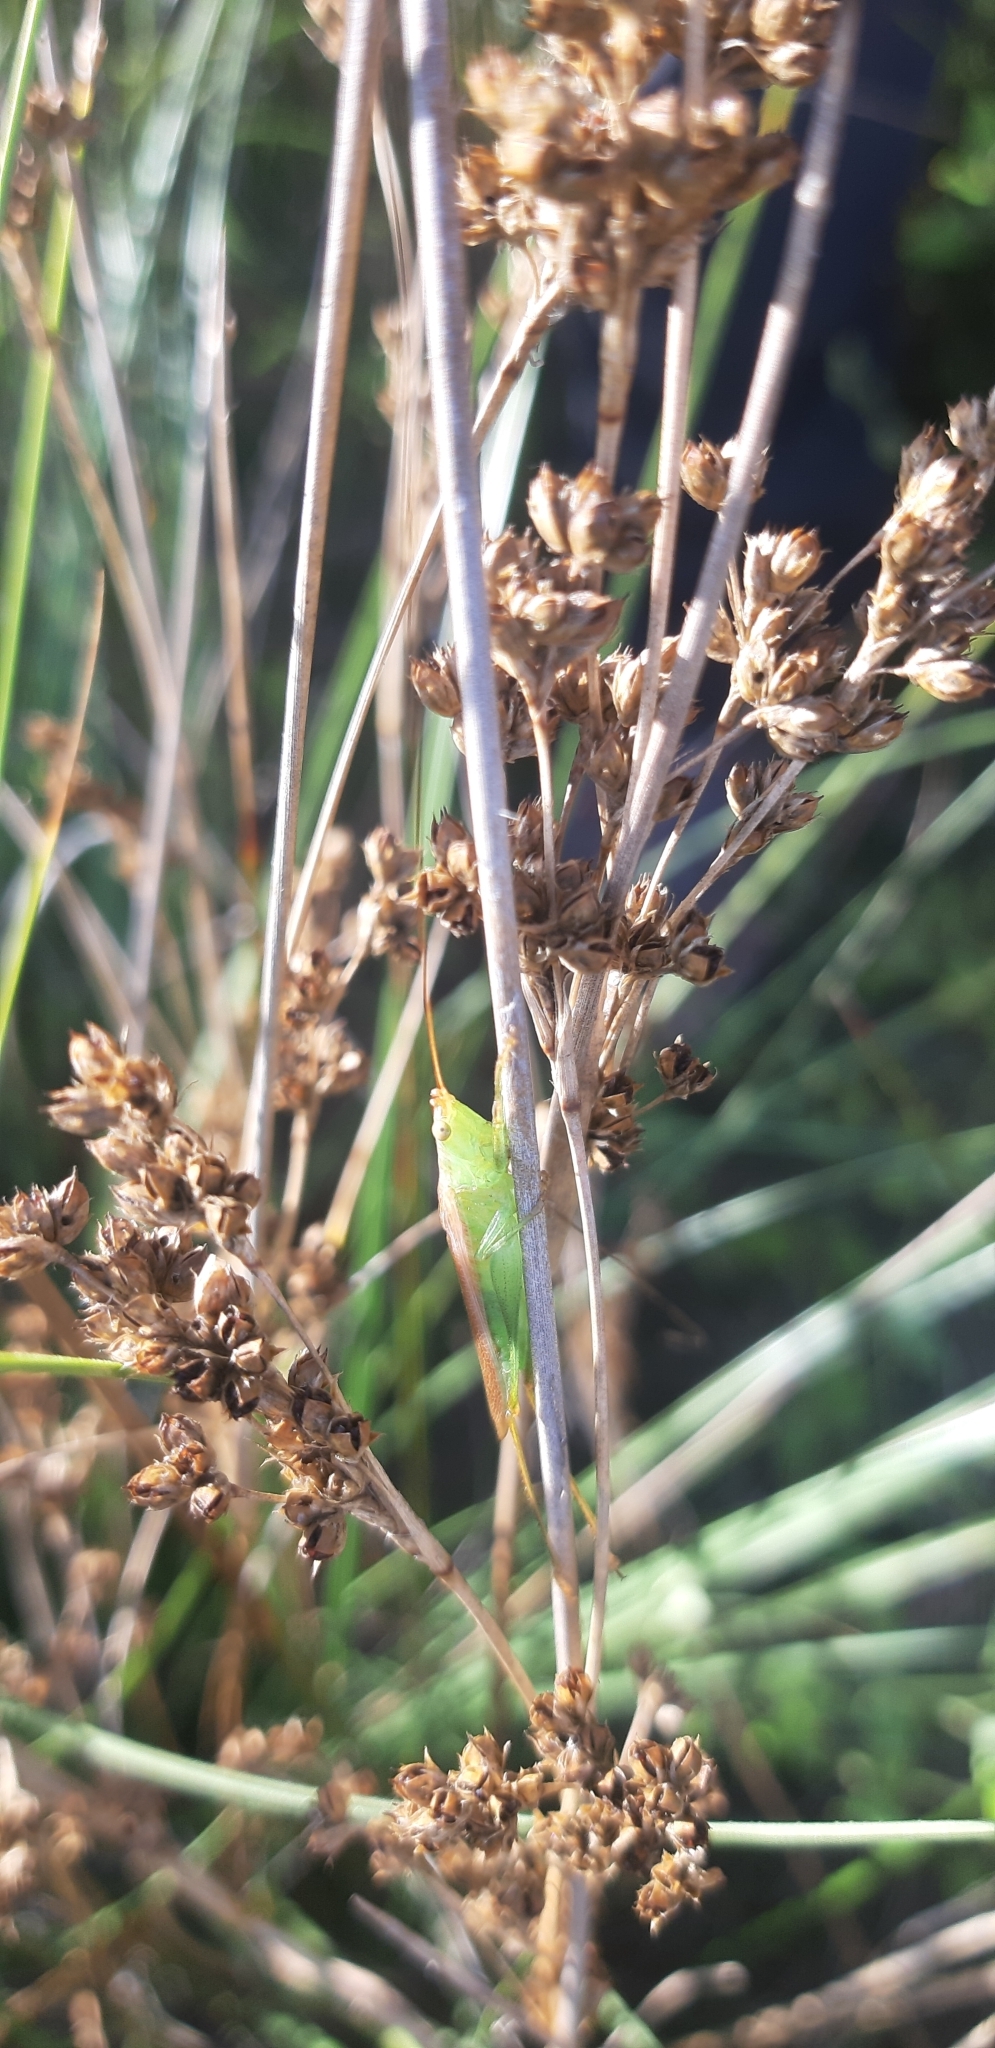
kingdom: Animalia
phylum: Arthropoda
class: Insecta
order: Orthoptera
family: Tettigoniidae
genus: Conocephalus
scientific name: Conocephalus conocephalus
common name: African meadow katydid
